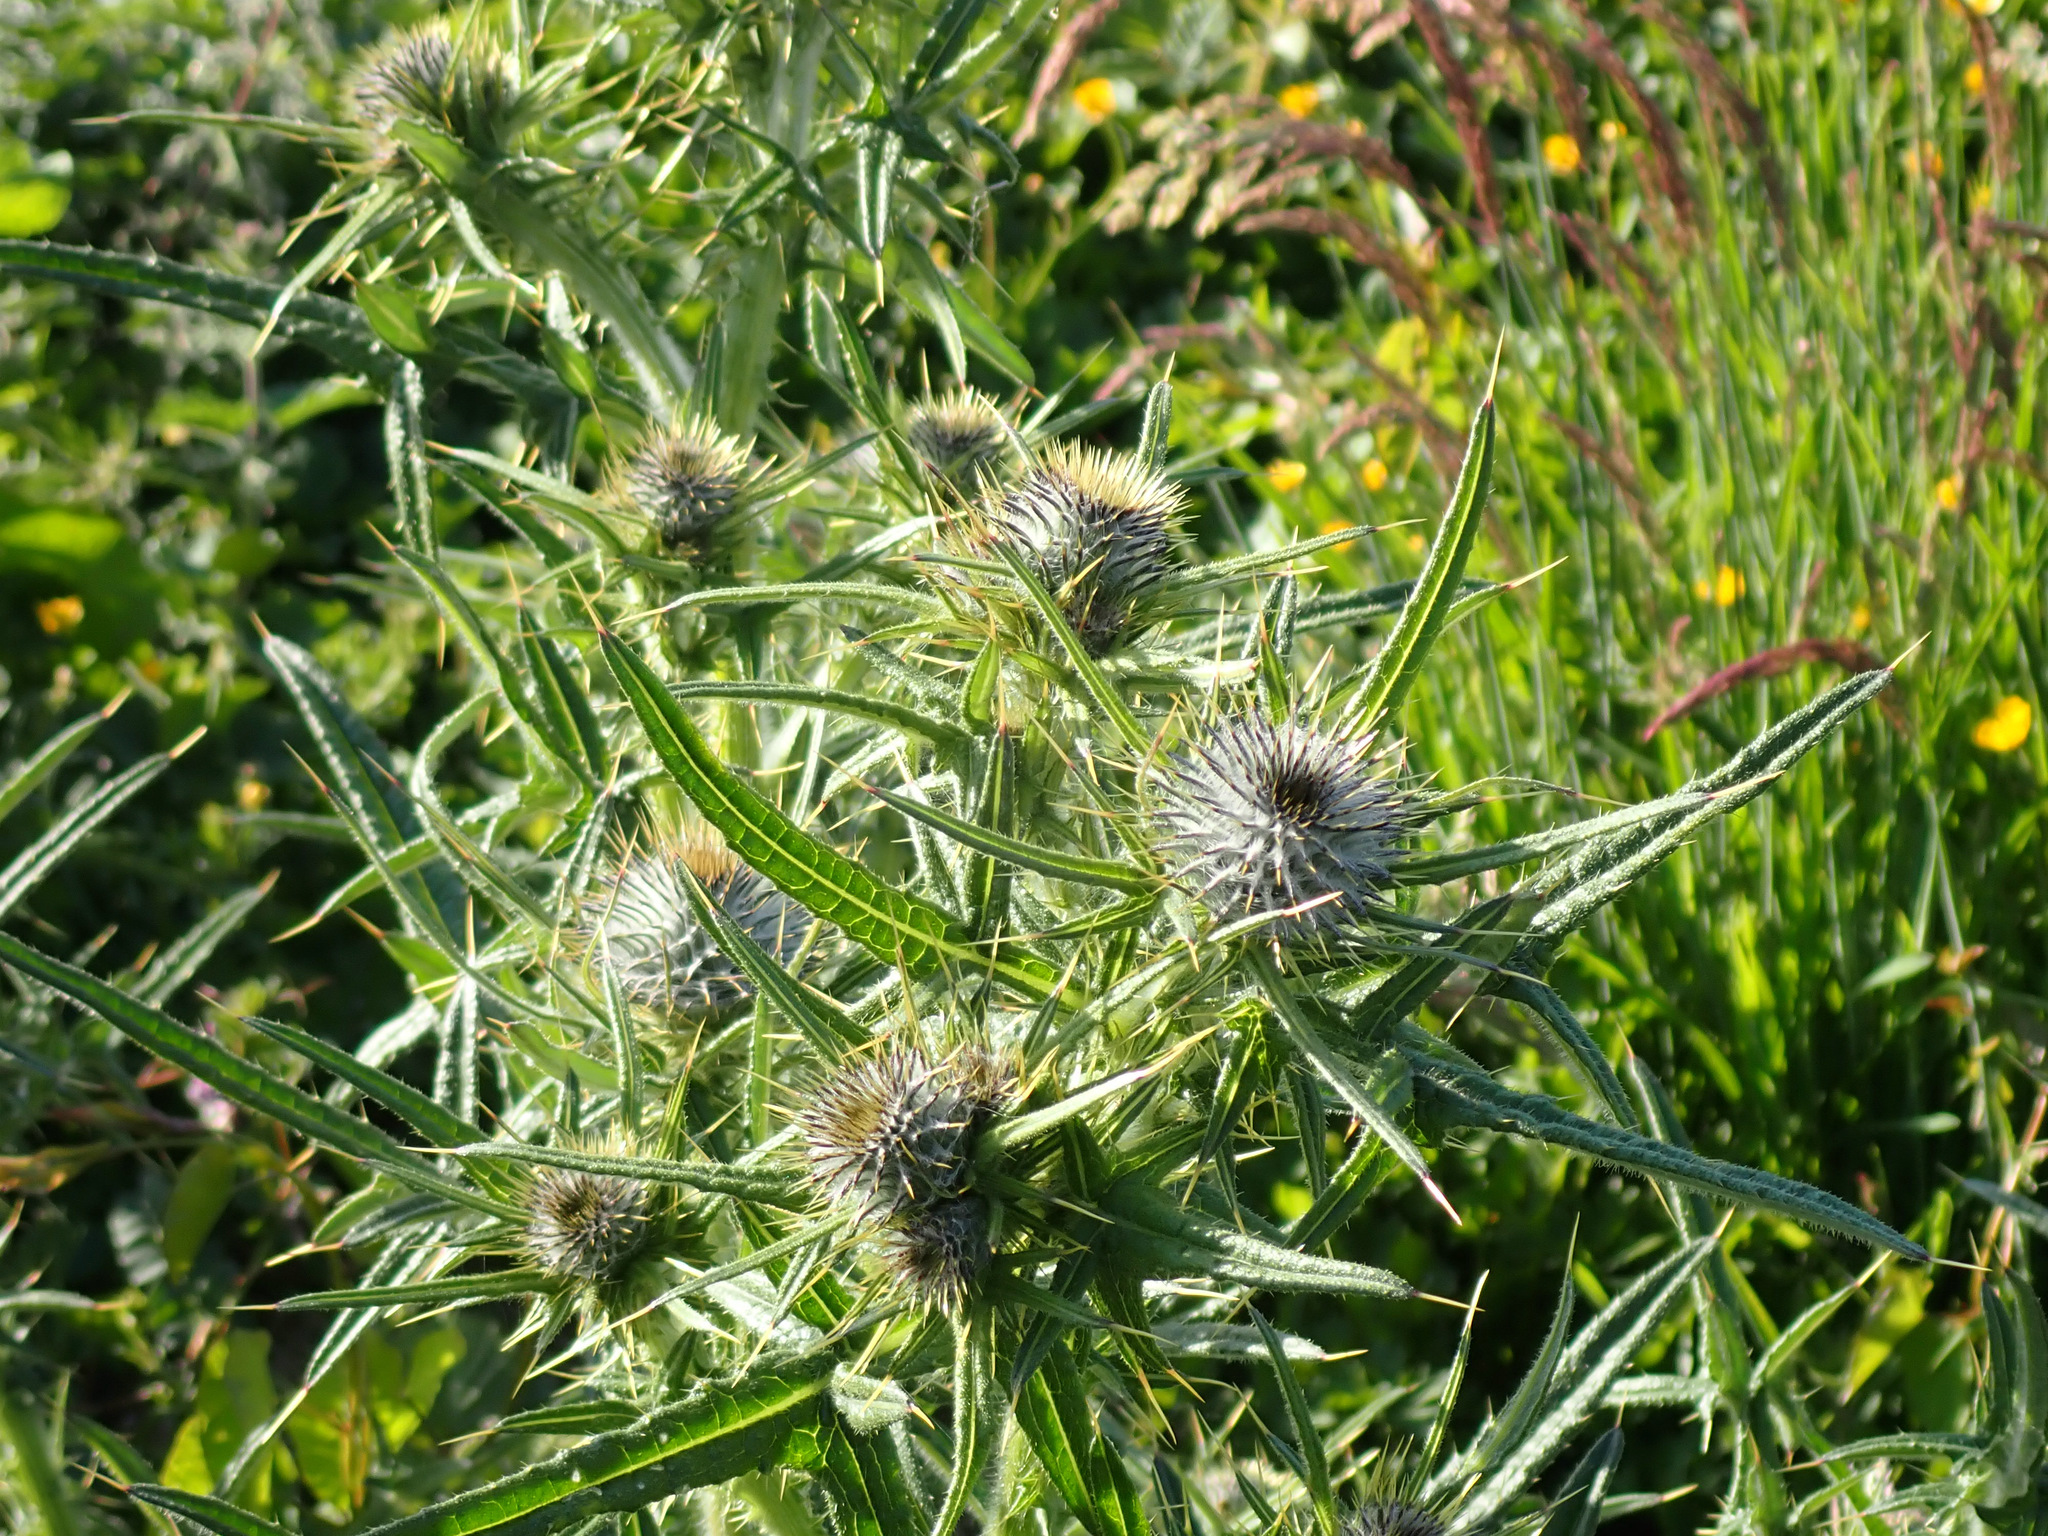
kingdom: Plantae
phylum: Tracheophyta
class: Magnoliopsida
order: Asterales
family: Asteraceae
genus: Cirsium
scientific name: Cirsium vulgare
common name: Bull thistle
